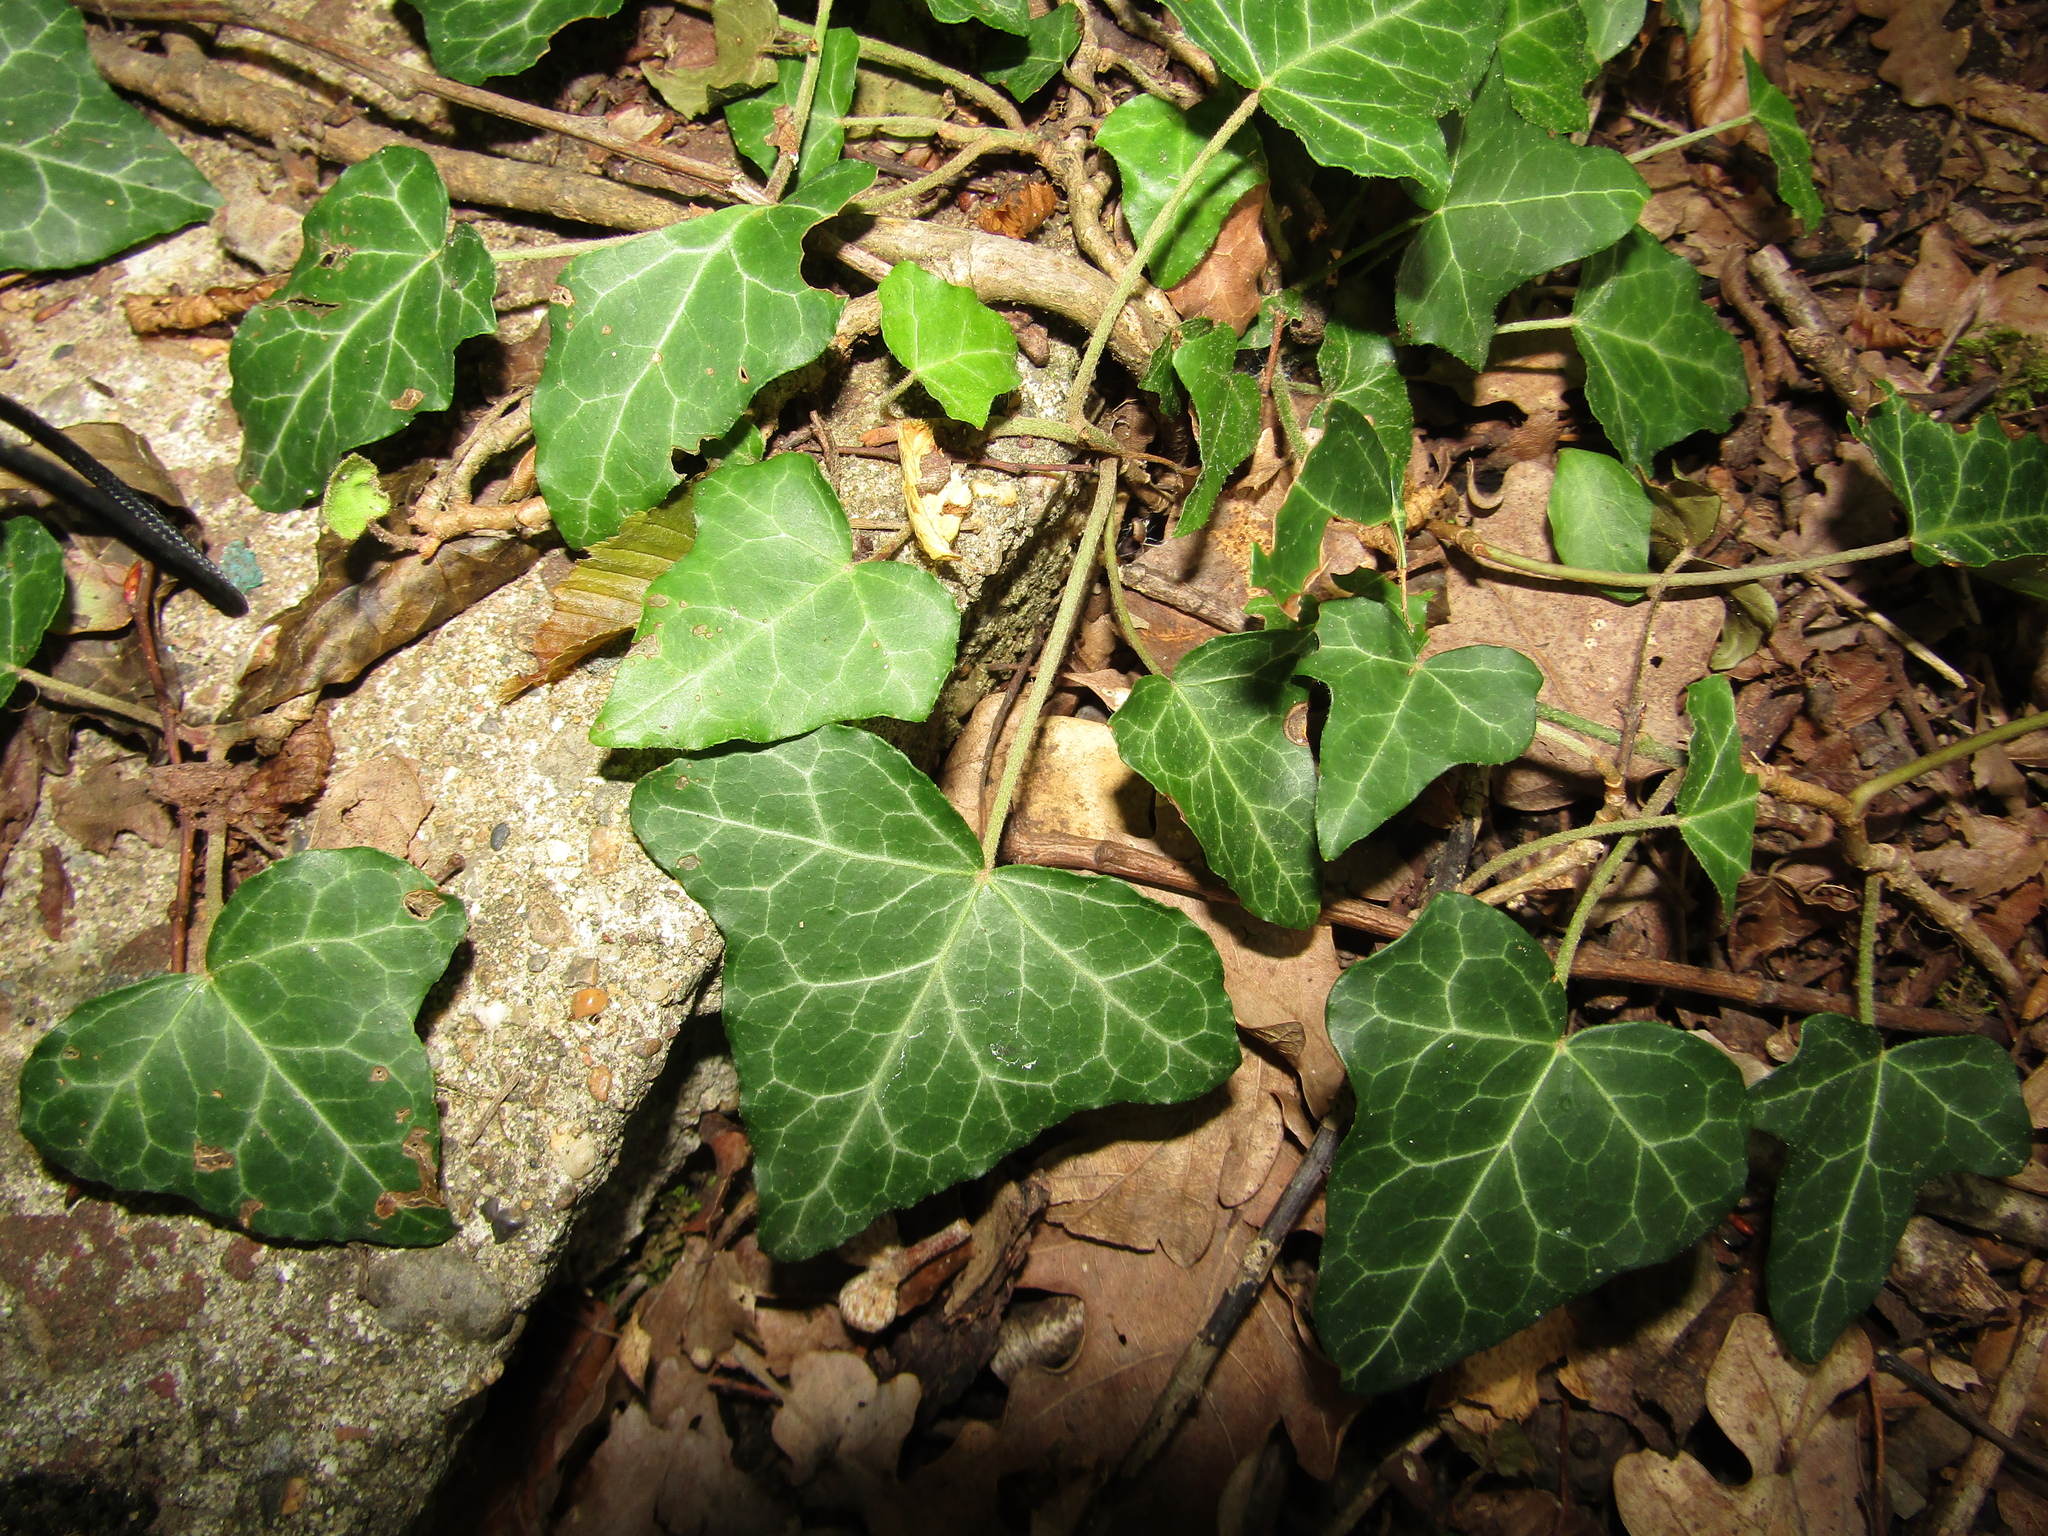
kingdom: Plantae
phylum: Tracheophyta
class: Magnoliopsida
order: Apiales
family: Araliaceae
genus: Hedera
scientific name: Hedera helix
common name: Ivy
